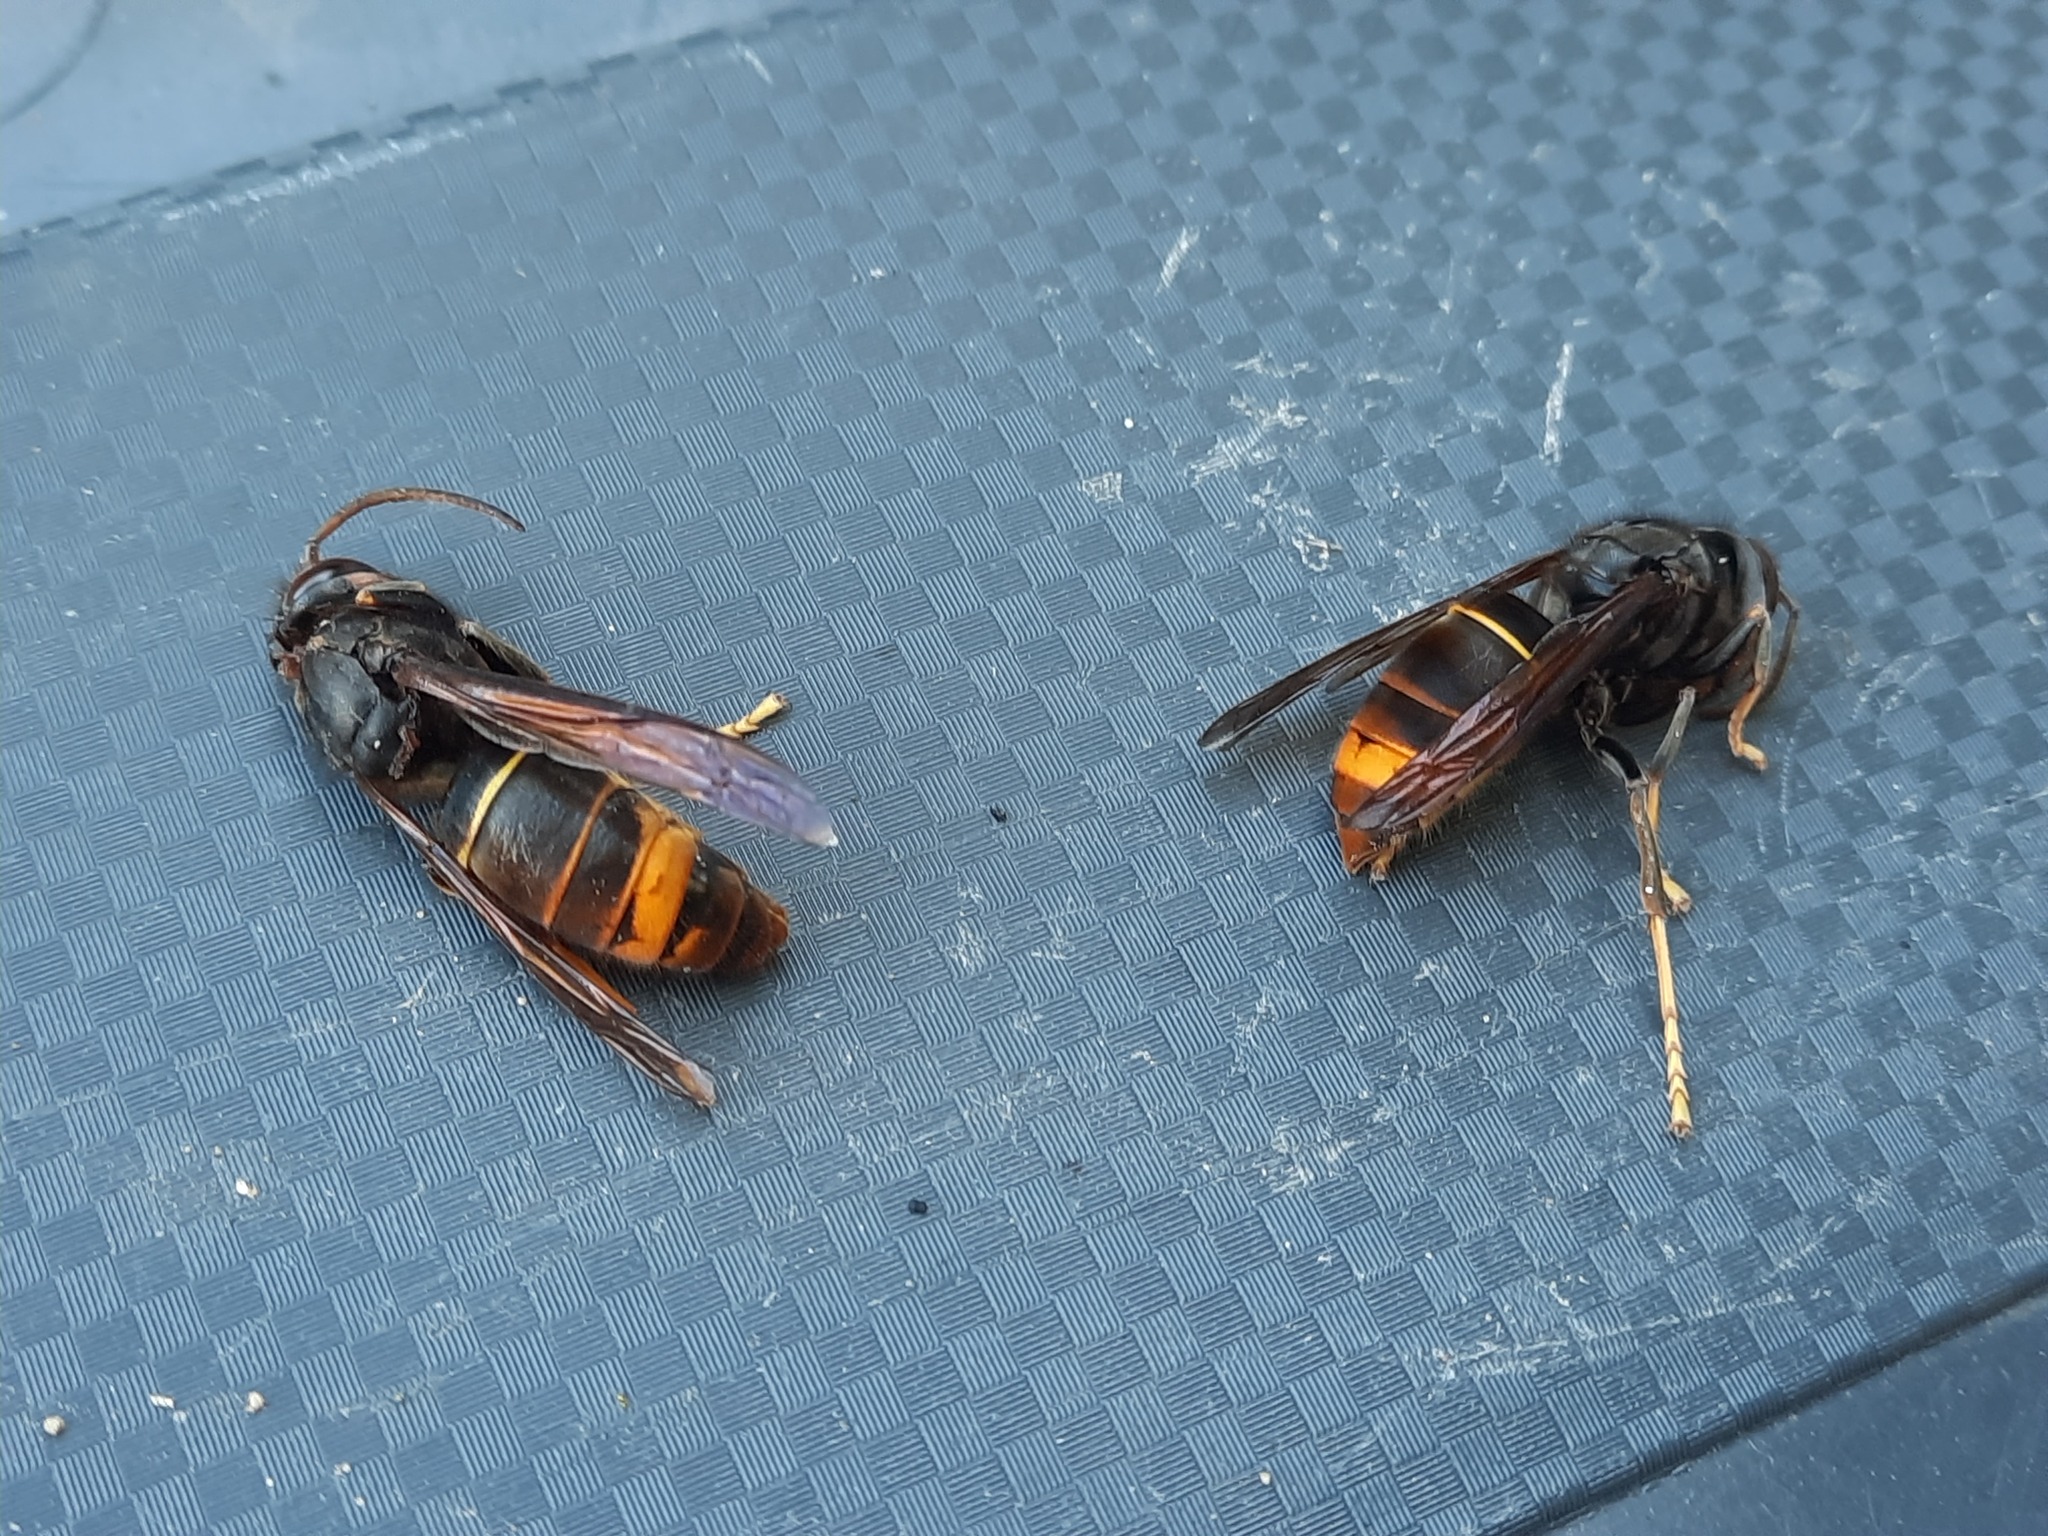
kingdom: Animalia
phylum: Arthropoda
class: Insecta
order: Hymenoptera
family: Vespidae
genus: Vespa
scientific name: Vespa velutina
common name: Asian hornet
